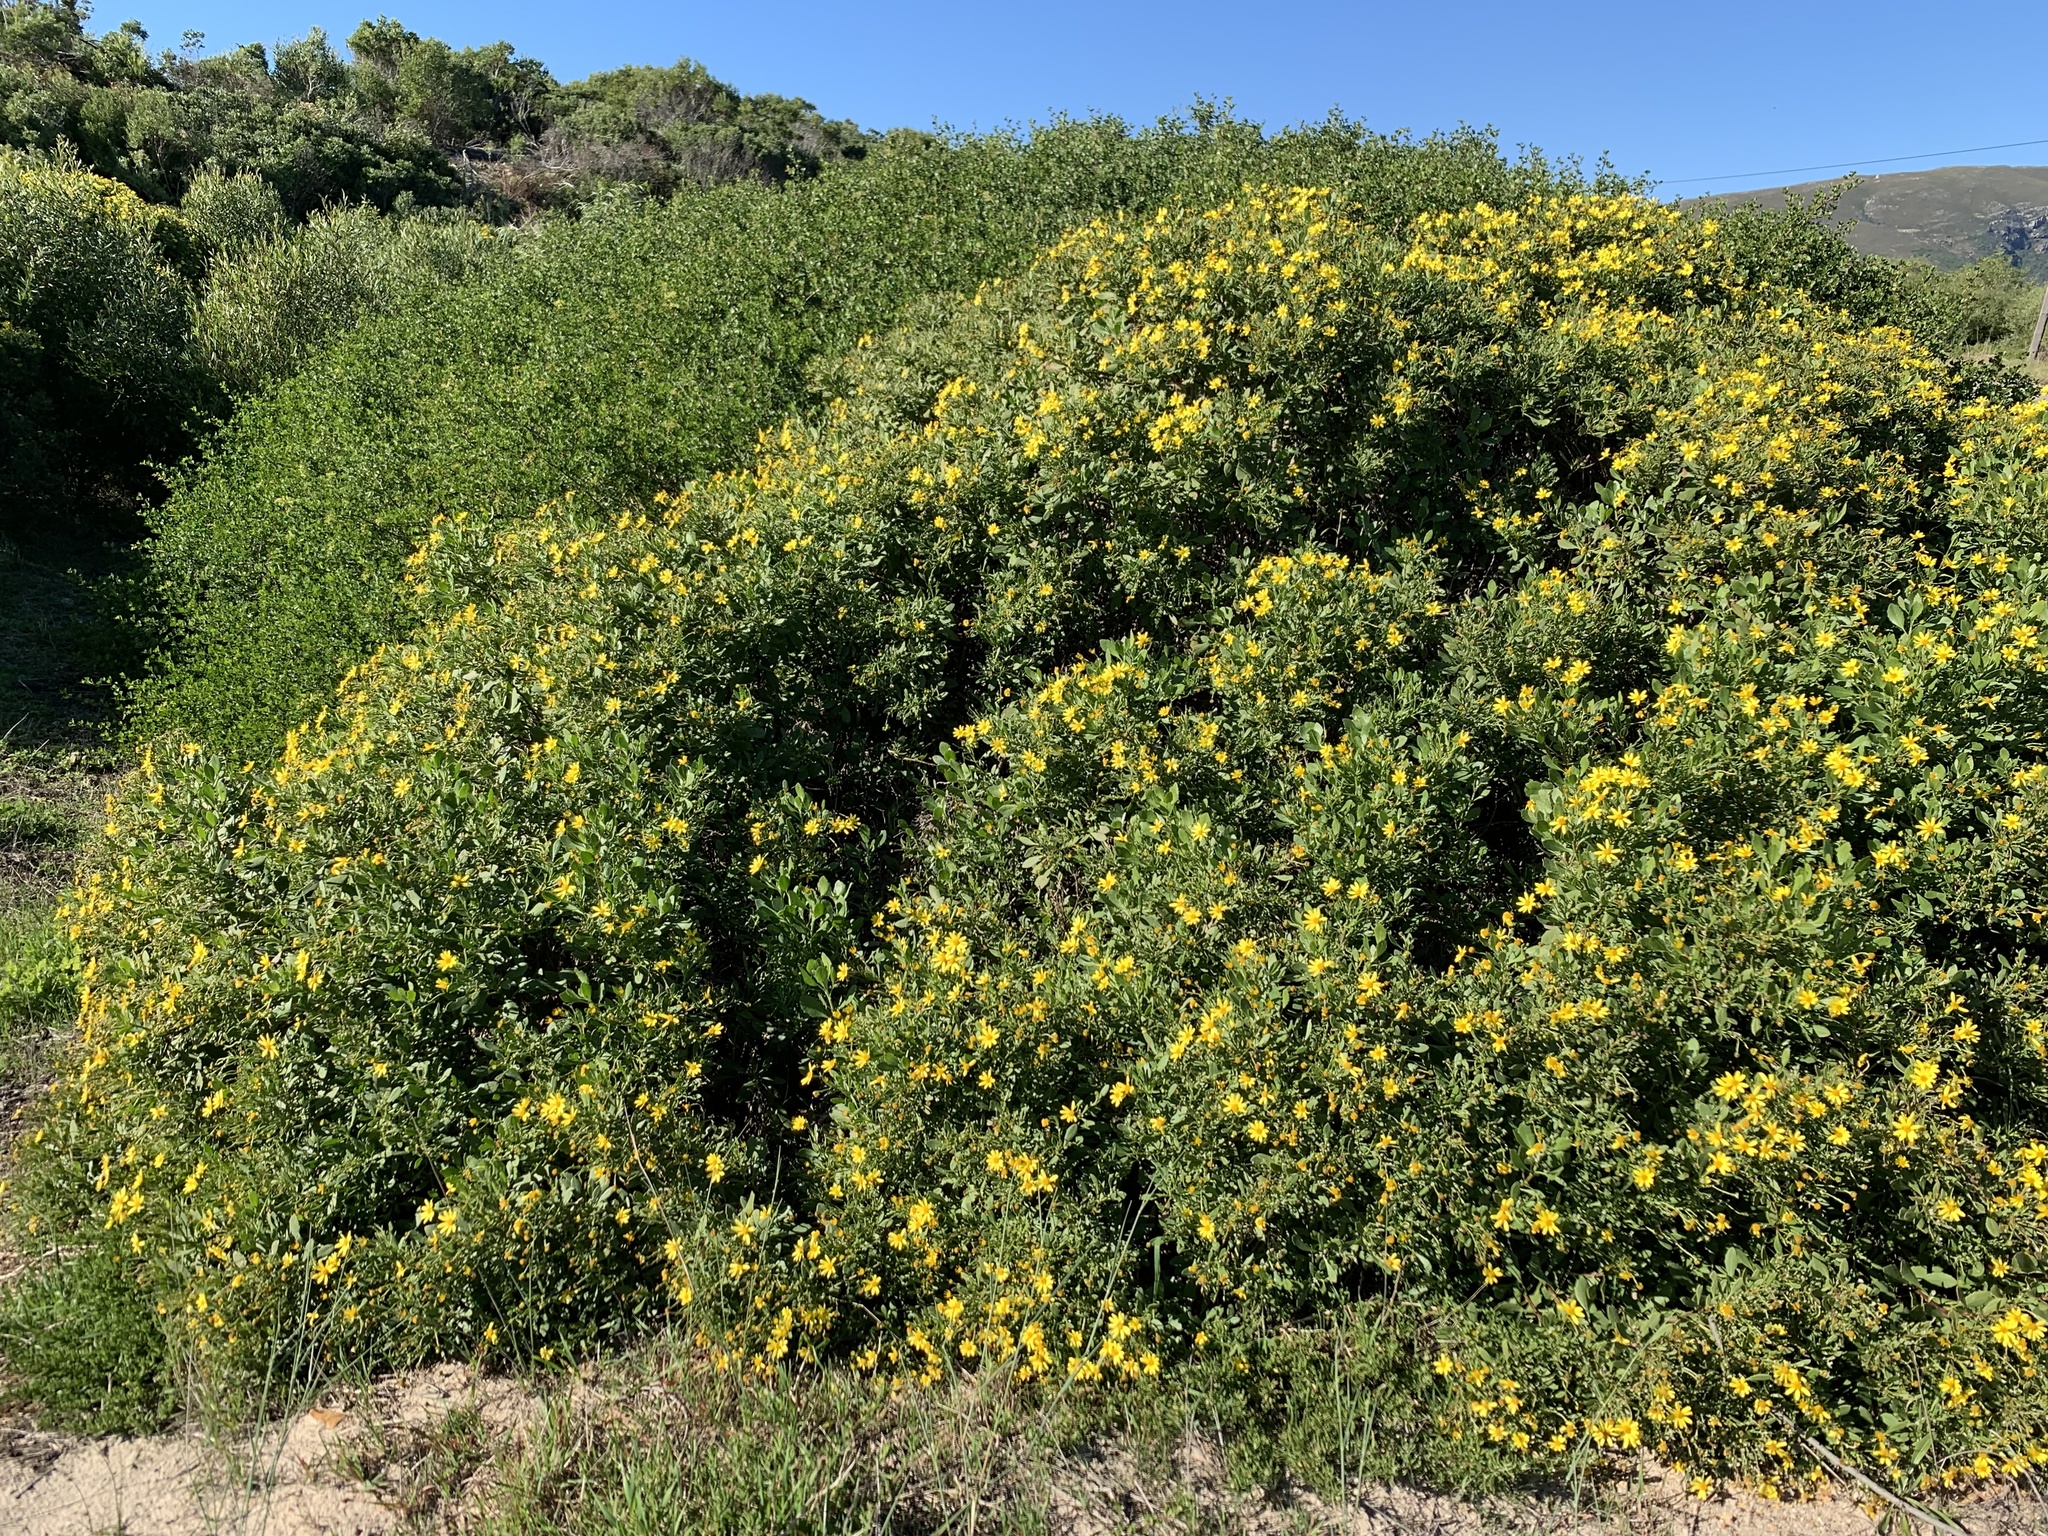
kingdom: Plantae
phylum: Tracheophyta
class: Magnoliopsida
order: Asterales
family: Asteraceae
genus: Osteospermum
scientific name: Osteospermum moniliferum
